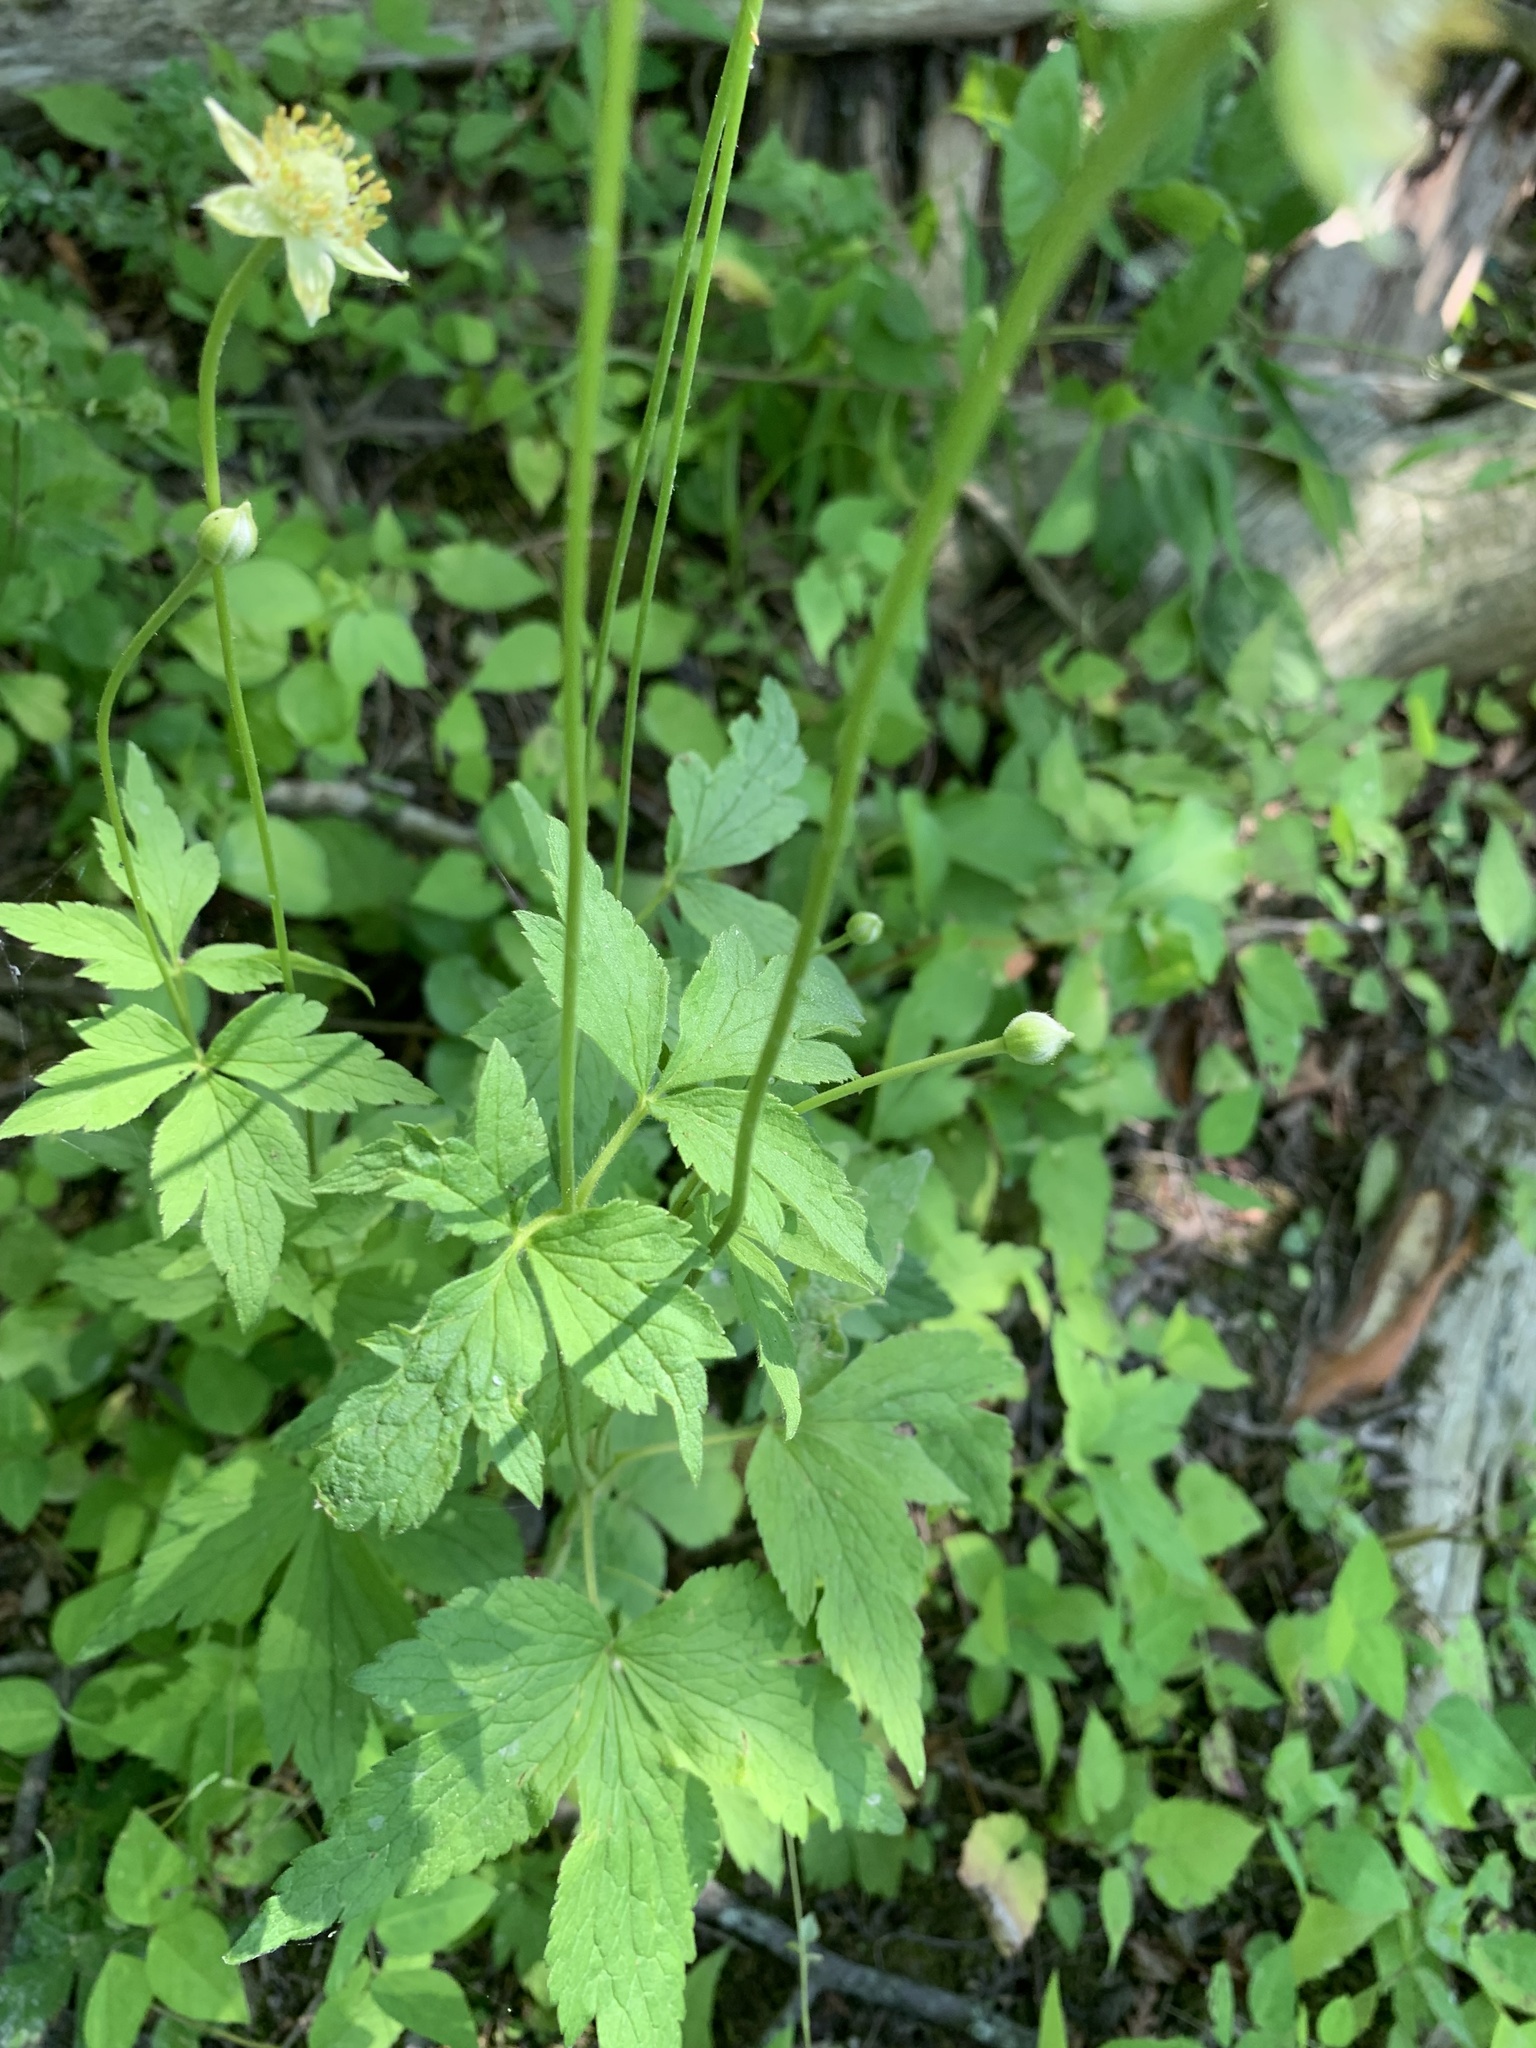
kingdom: Plantae
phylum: Tracheophyta
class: Magnoliopsida
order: Ranunculales
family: Ranunculaceae
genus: Anemone
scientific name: Anemone virginiana
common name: Tall anemone
